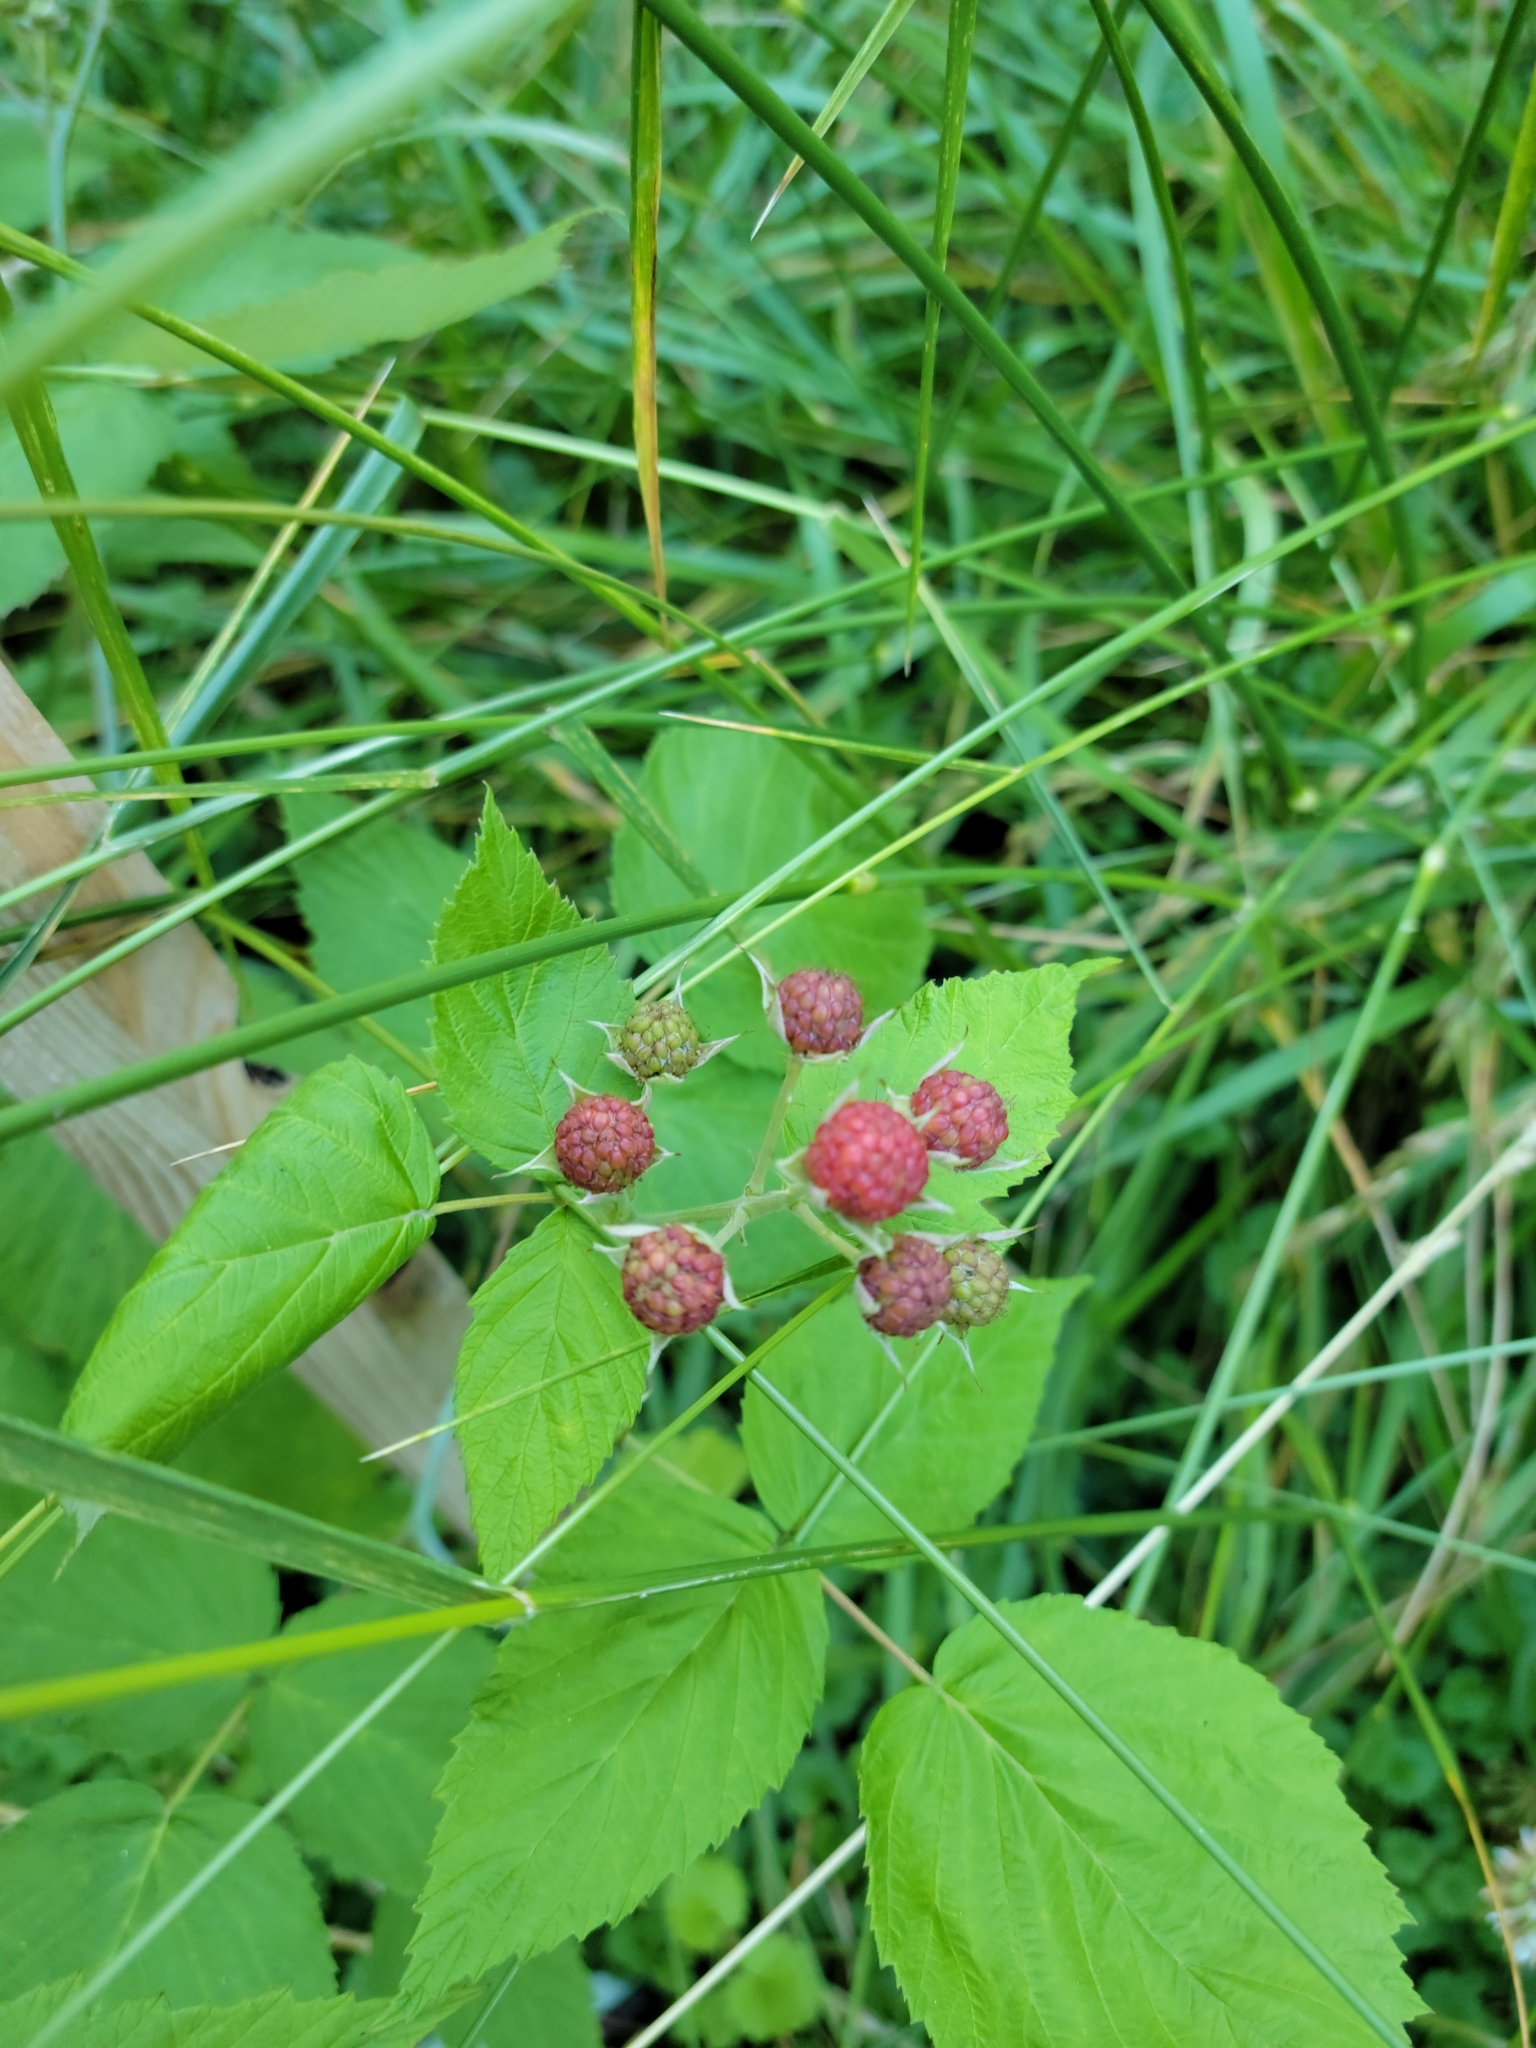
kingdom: Plantae
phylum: Tracheophyta
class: Magnoliopsida
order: Rosales
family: Rosaceae
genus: Rubus
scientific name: Rubus occidentalis
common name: Black raspberry
